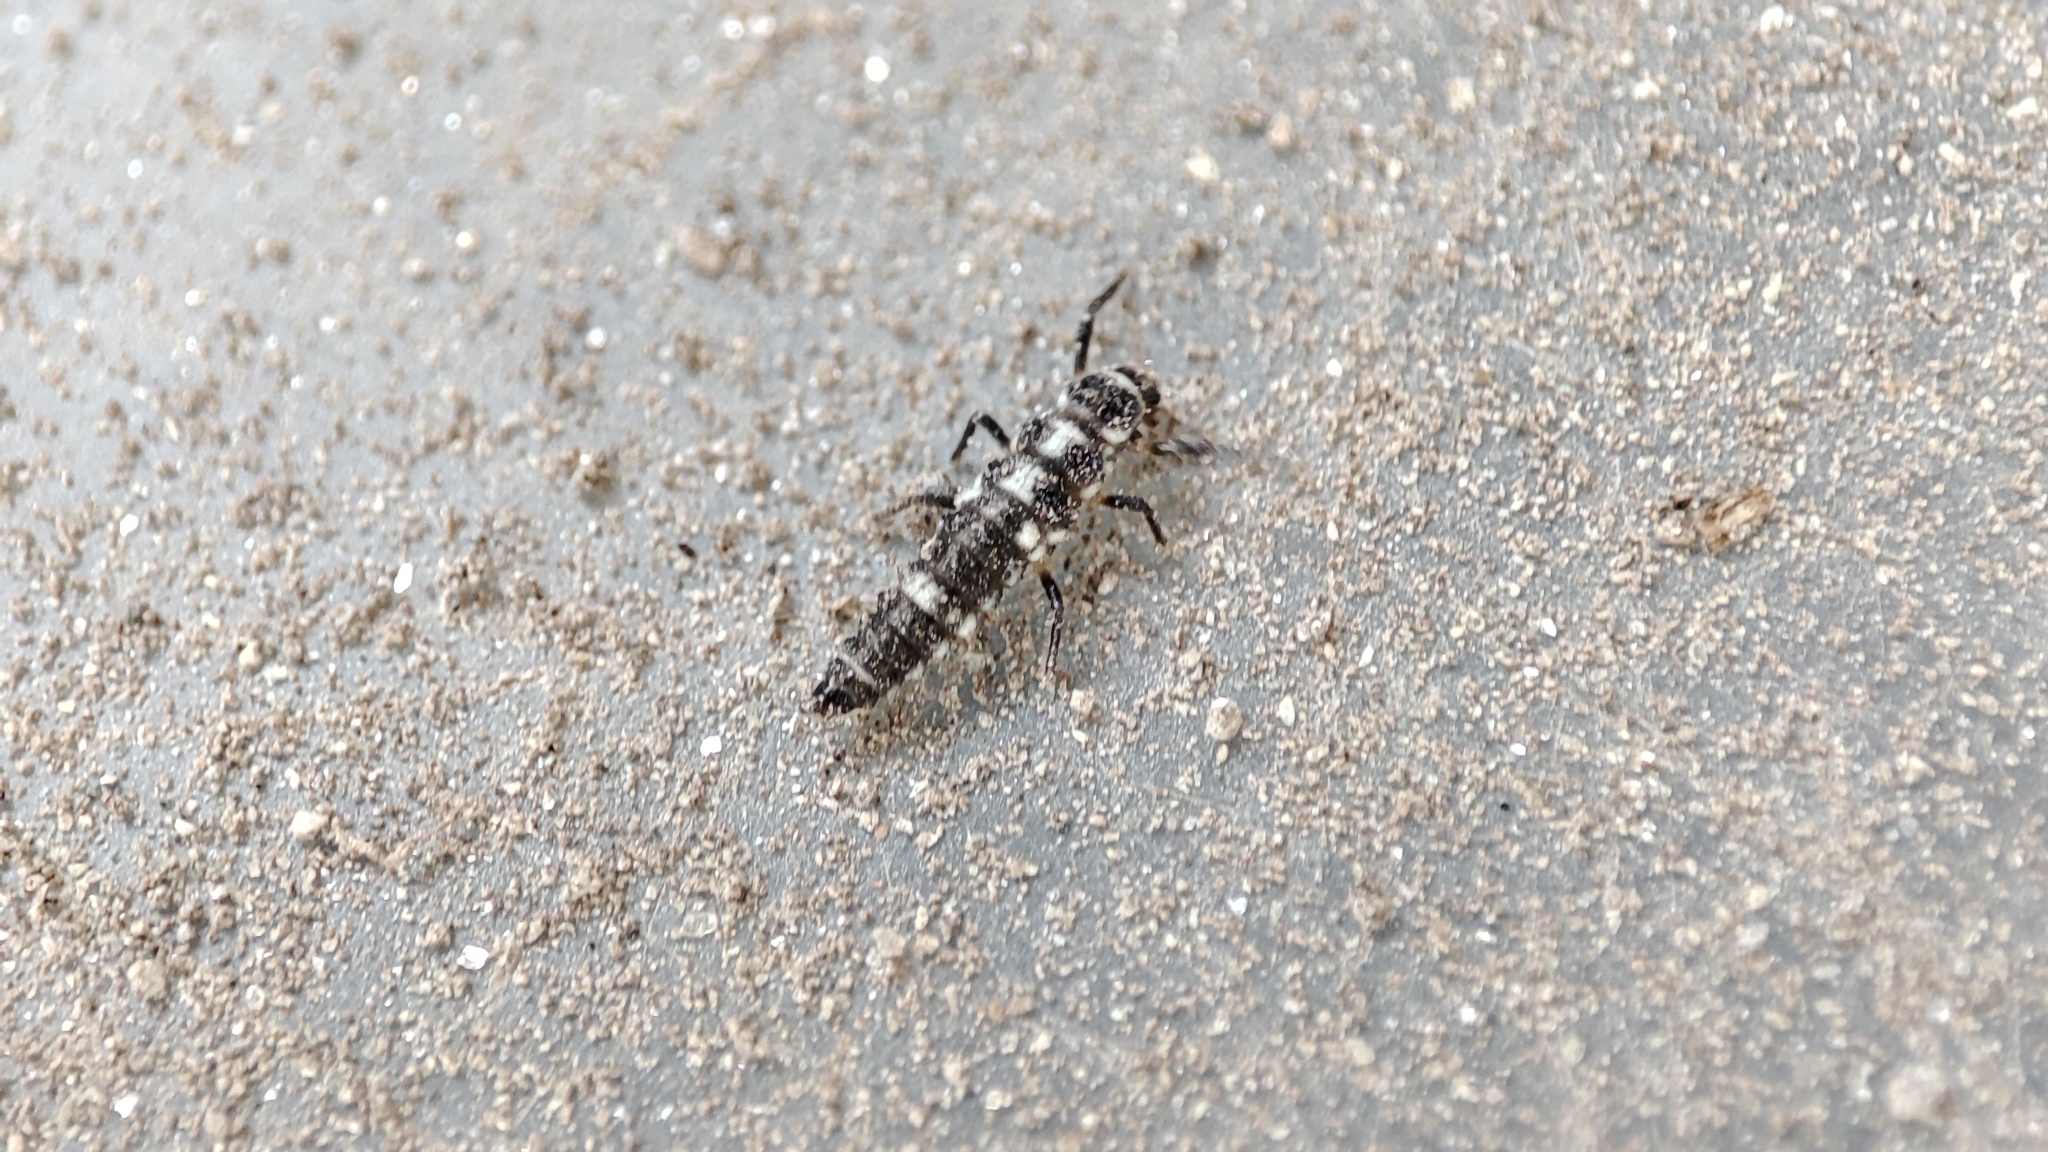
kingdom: Animalia
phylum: Arthropoda
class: Insecta
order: Coleoptera
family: Coccinellidae
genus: Propylaea
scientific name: Propylaea quatuordecimpunctata
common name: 14-spotted ladybird beetle
